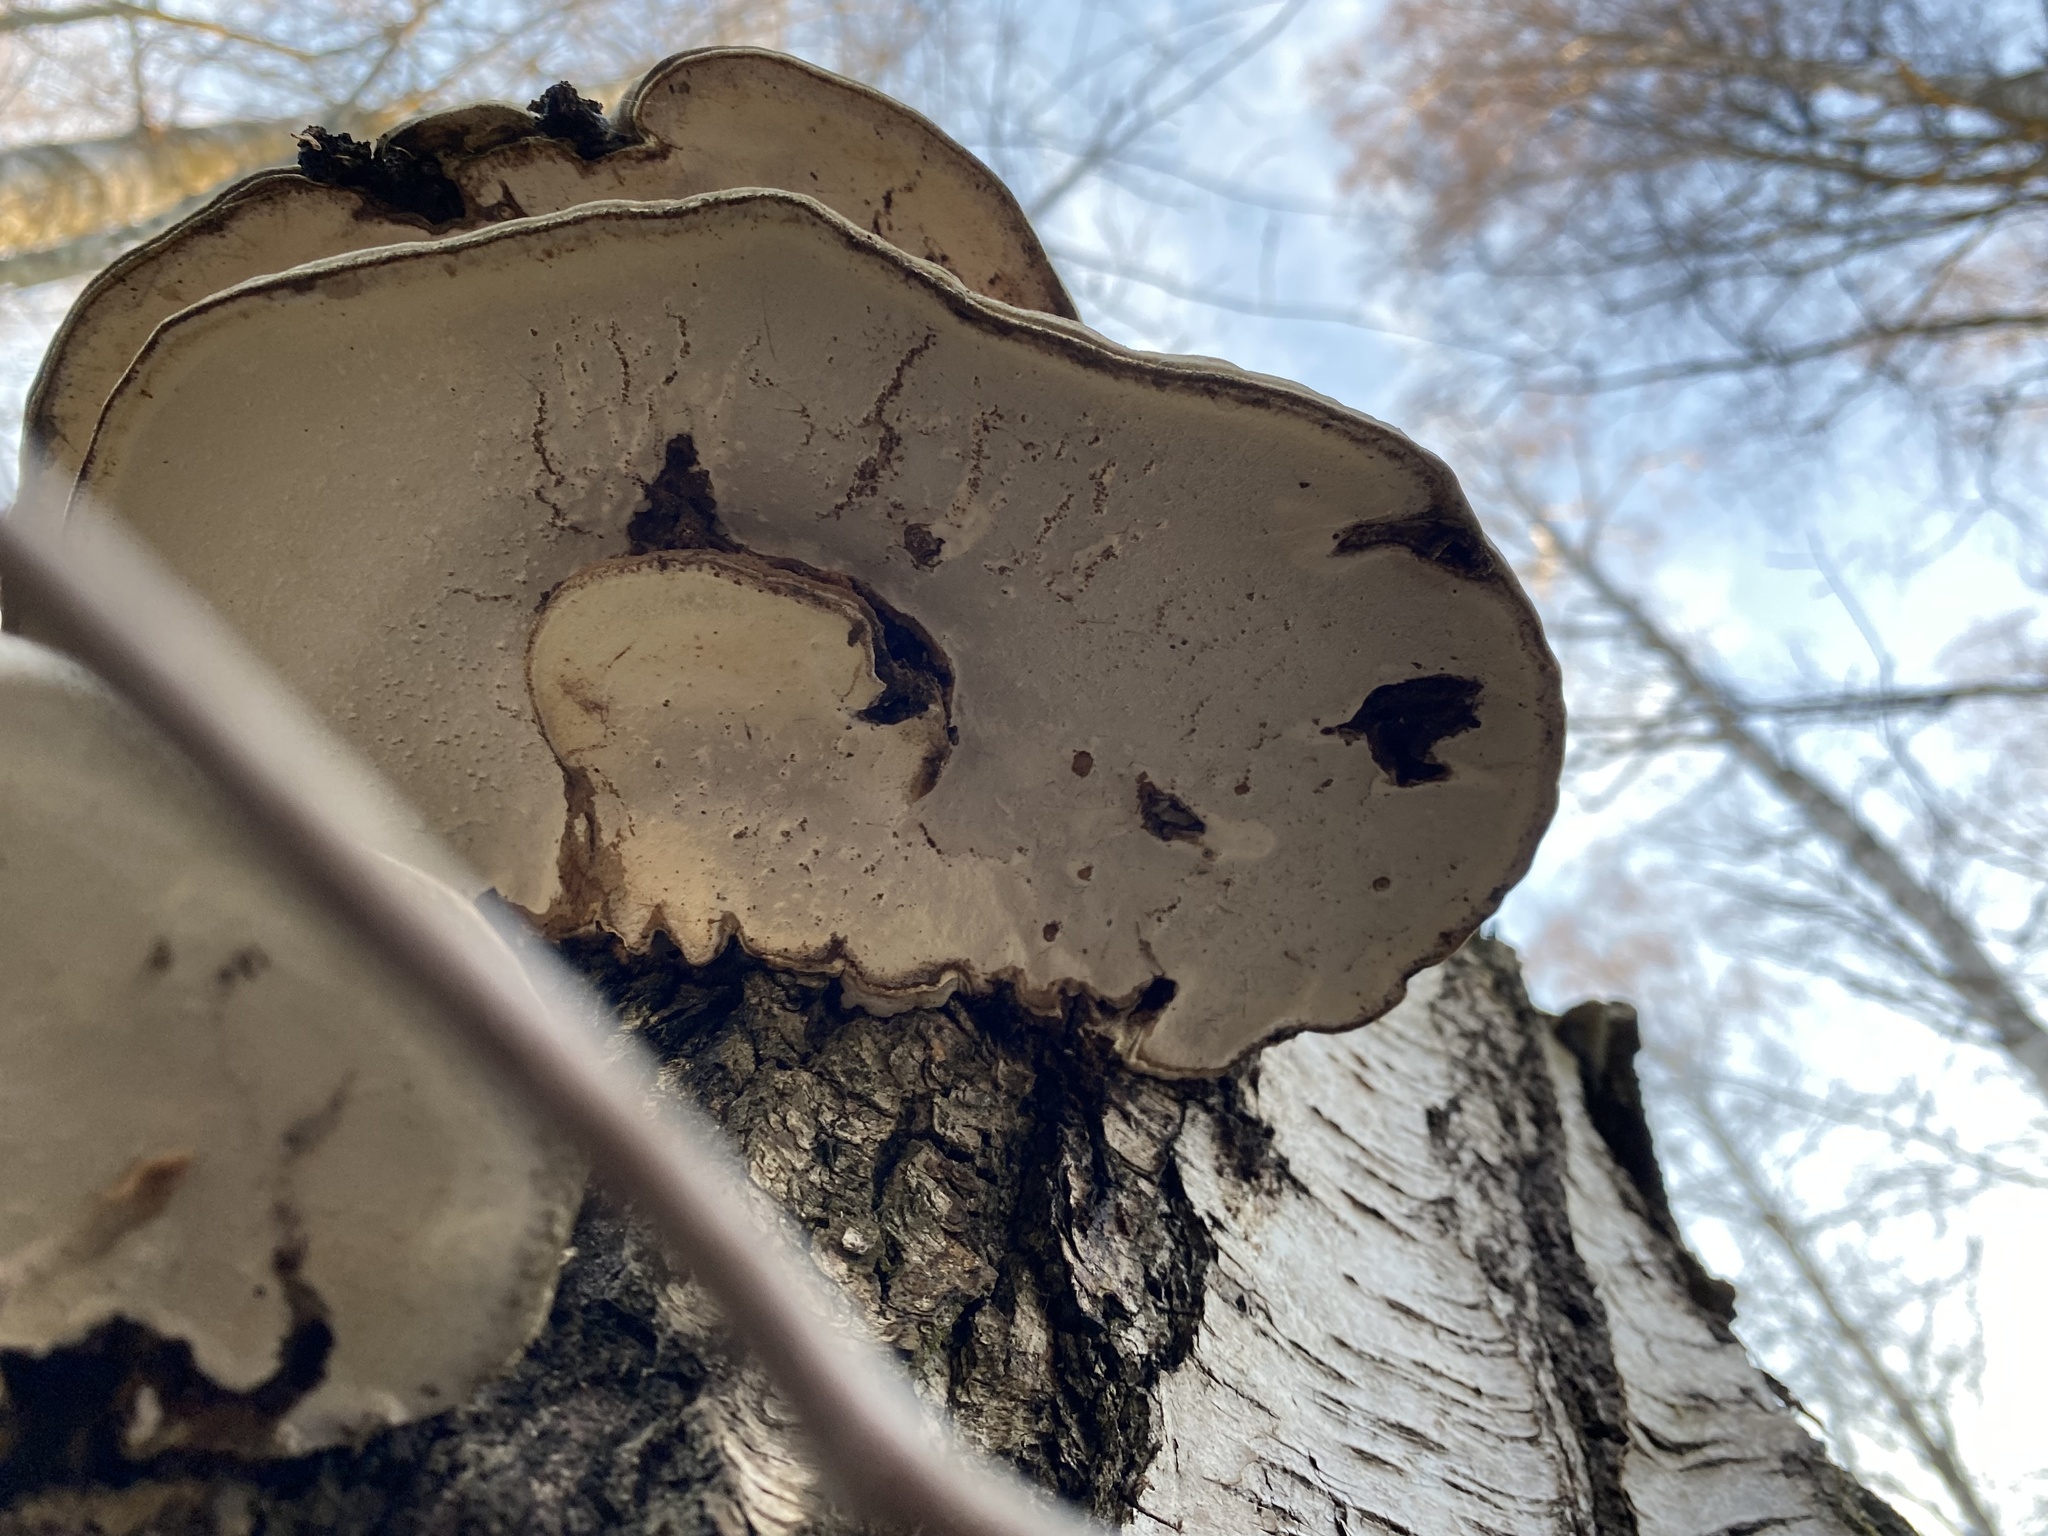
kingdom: Fungi
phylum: Basidiomycota
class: Agaricomycetes
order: Polyporales
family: Polyporaceae
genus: Ganoderma
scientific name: Ganoderma applanatum
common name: Artist's bracket
